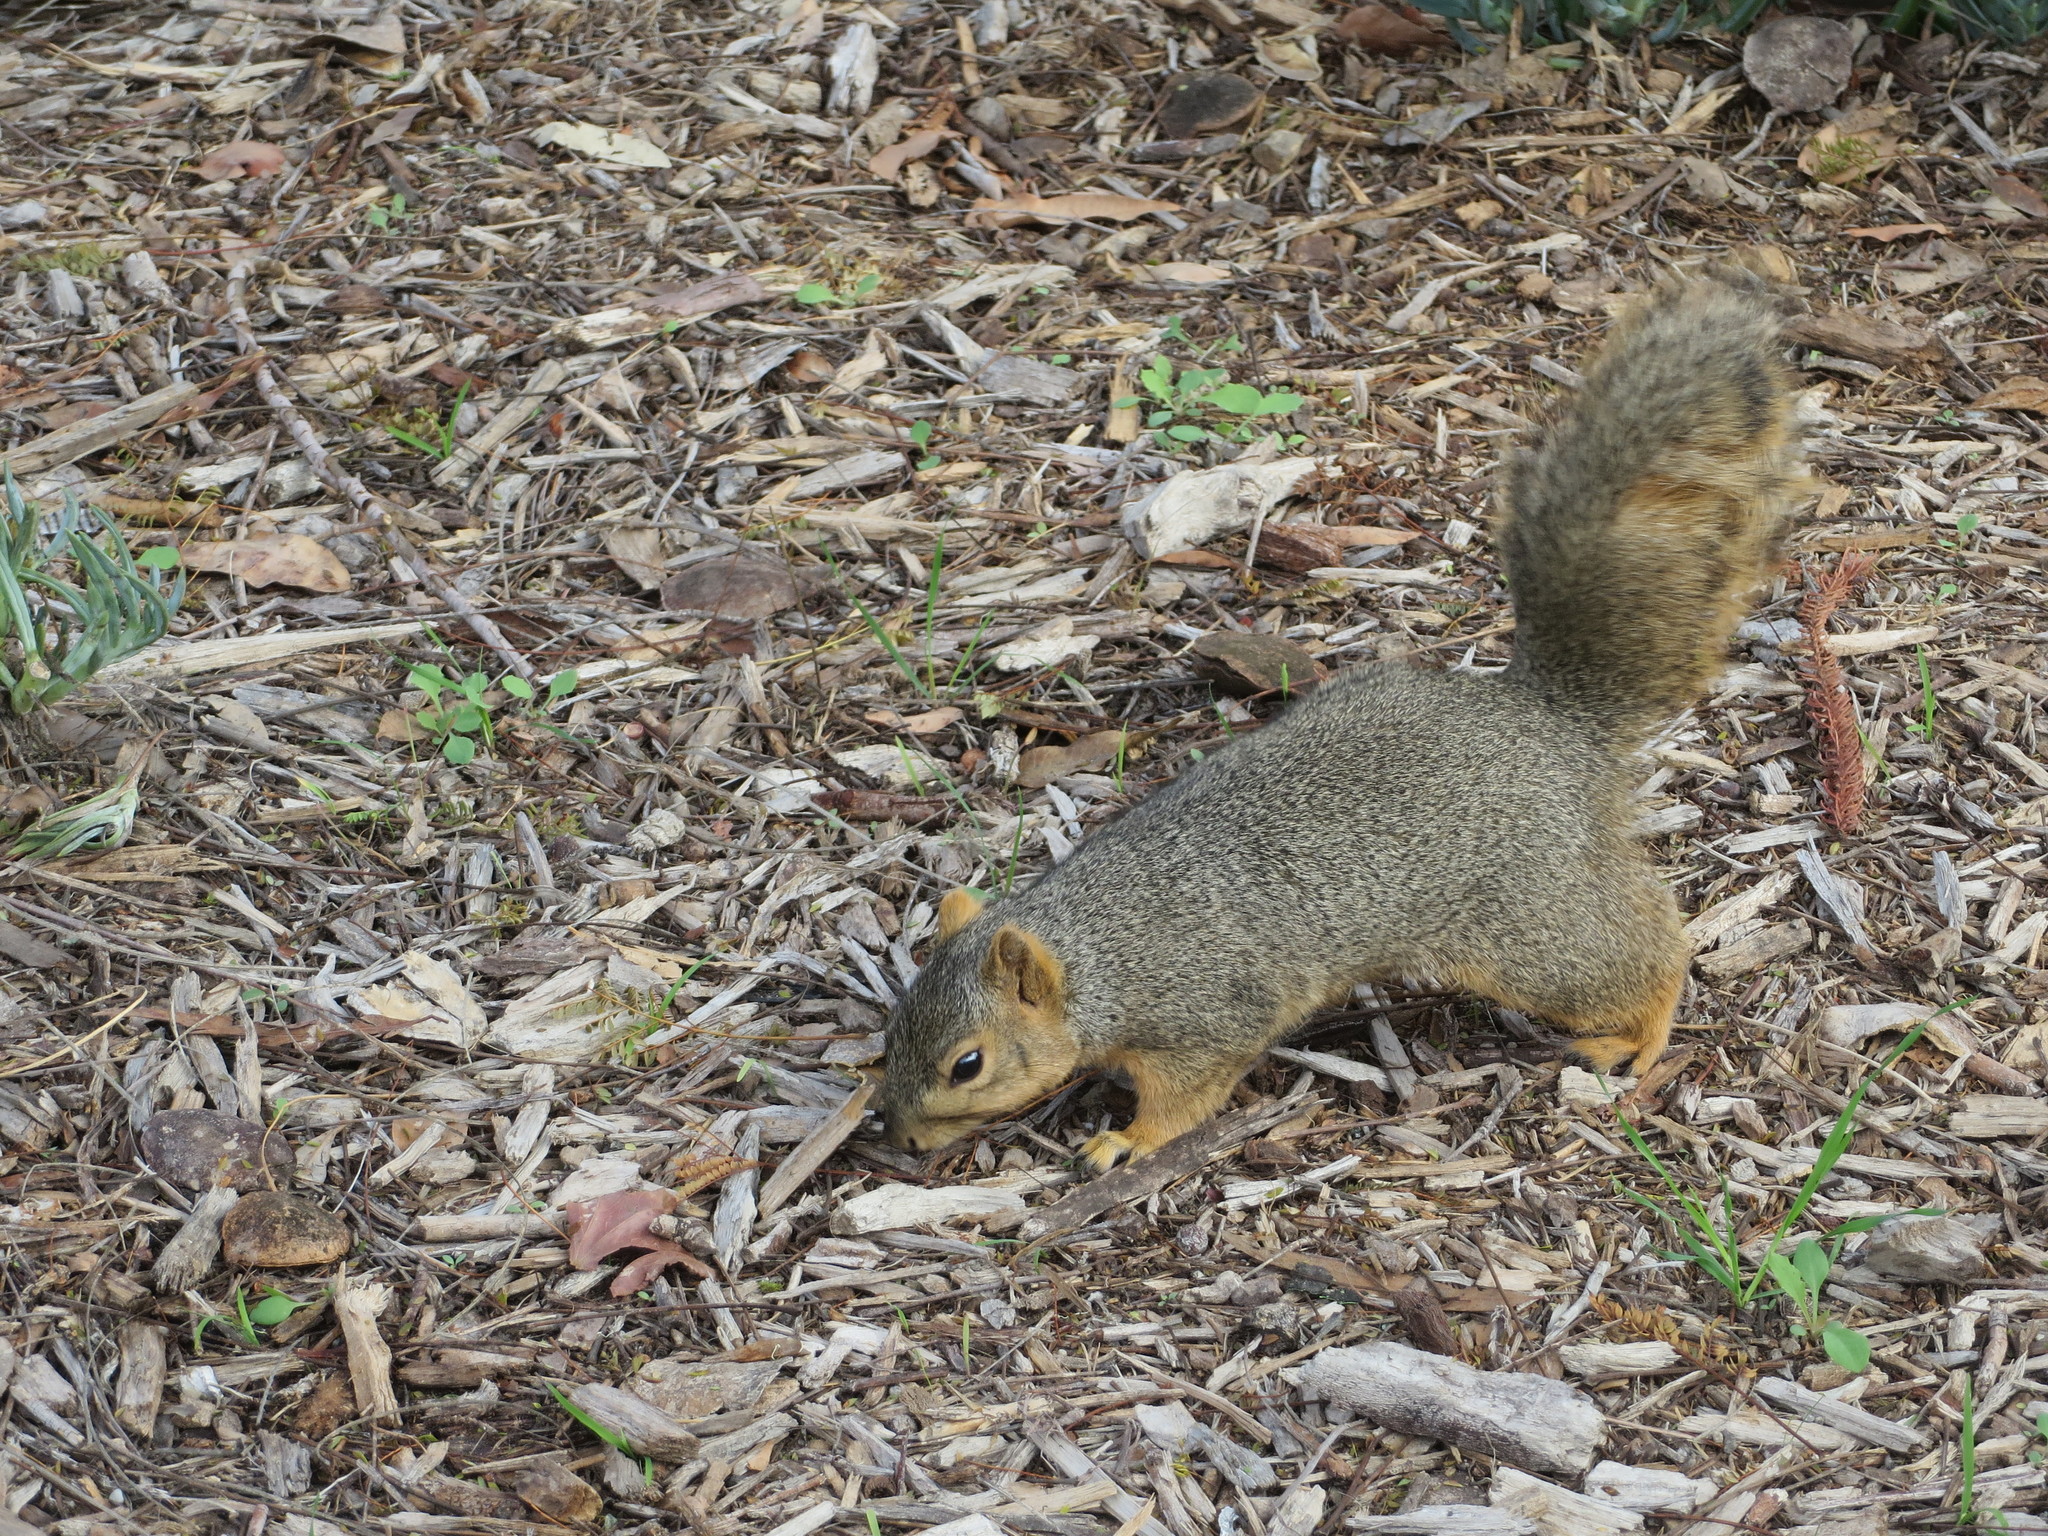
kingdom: Animalia
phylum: Chordata
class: Mammalia
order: Rodentia
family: Sciuridae
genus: Sciurus
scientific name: Sciurus niger
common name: Fox squirrel
